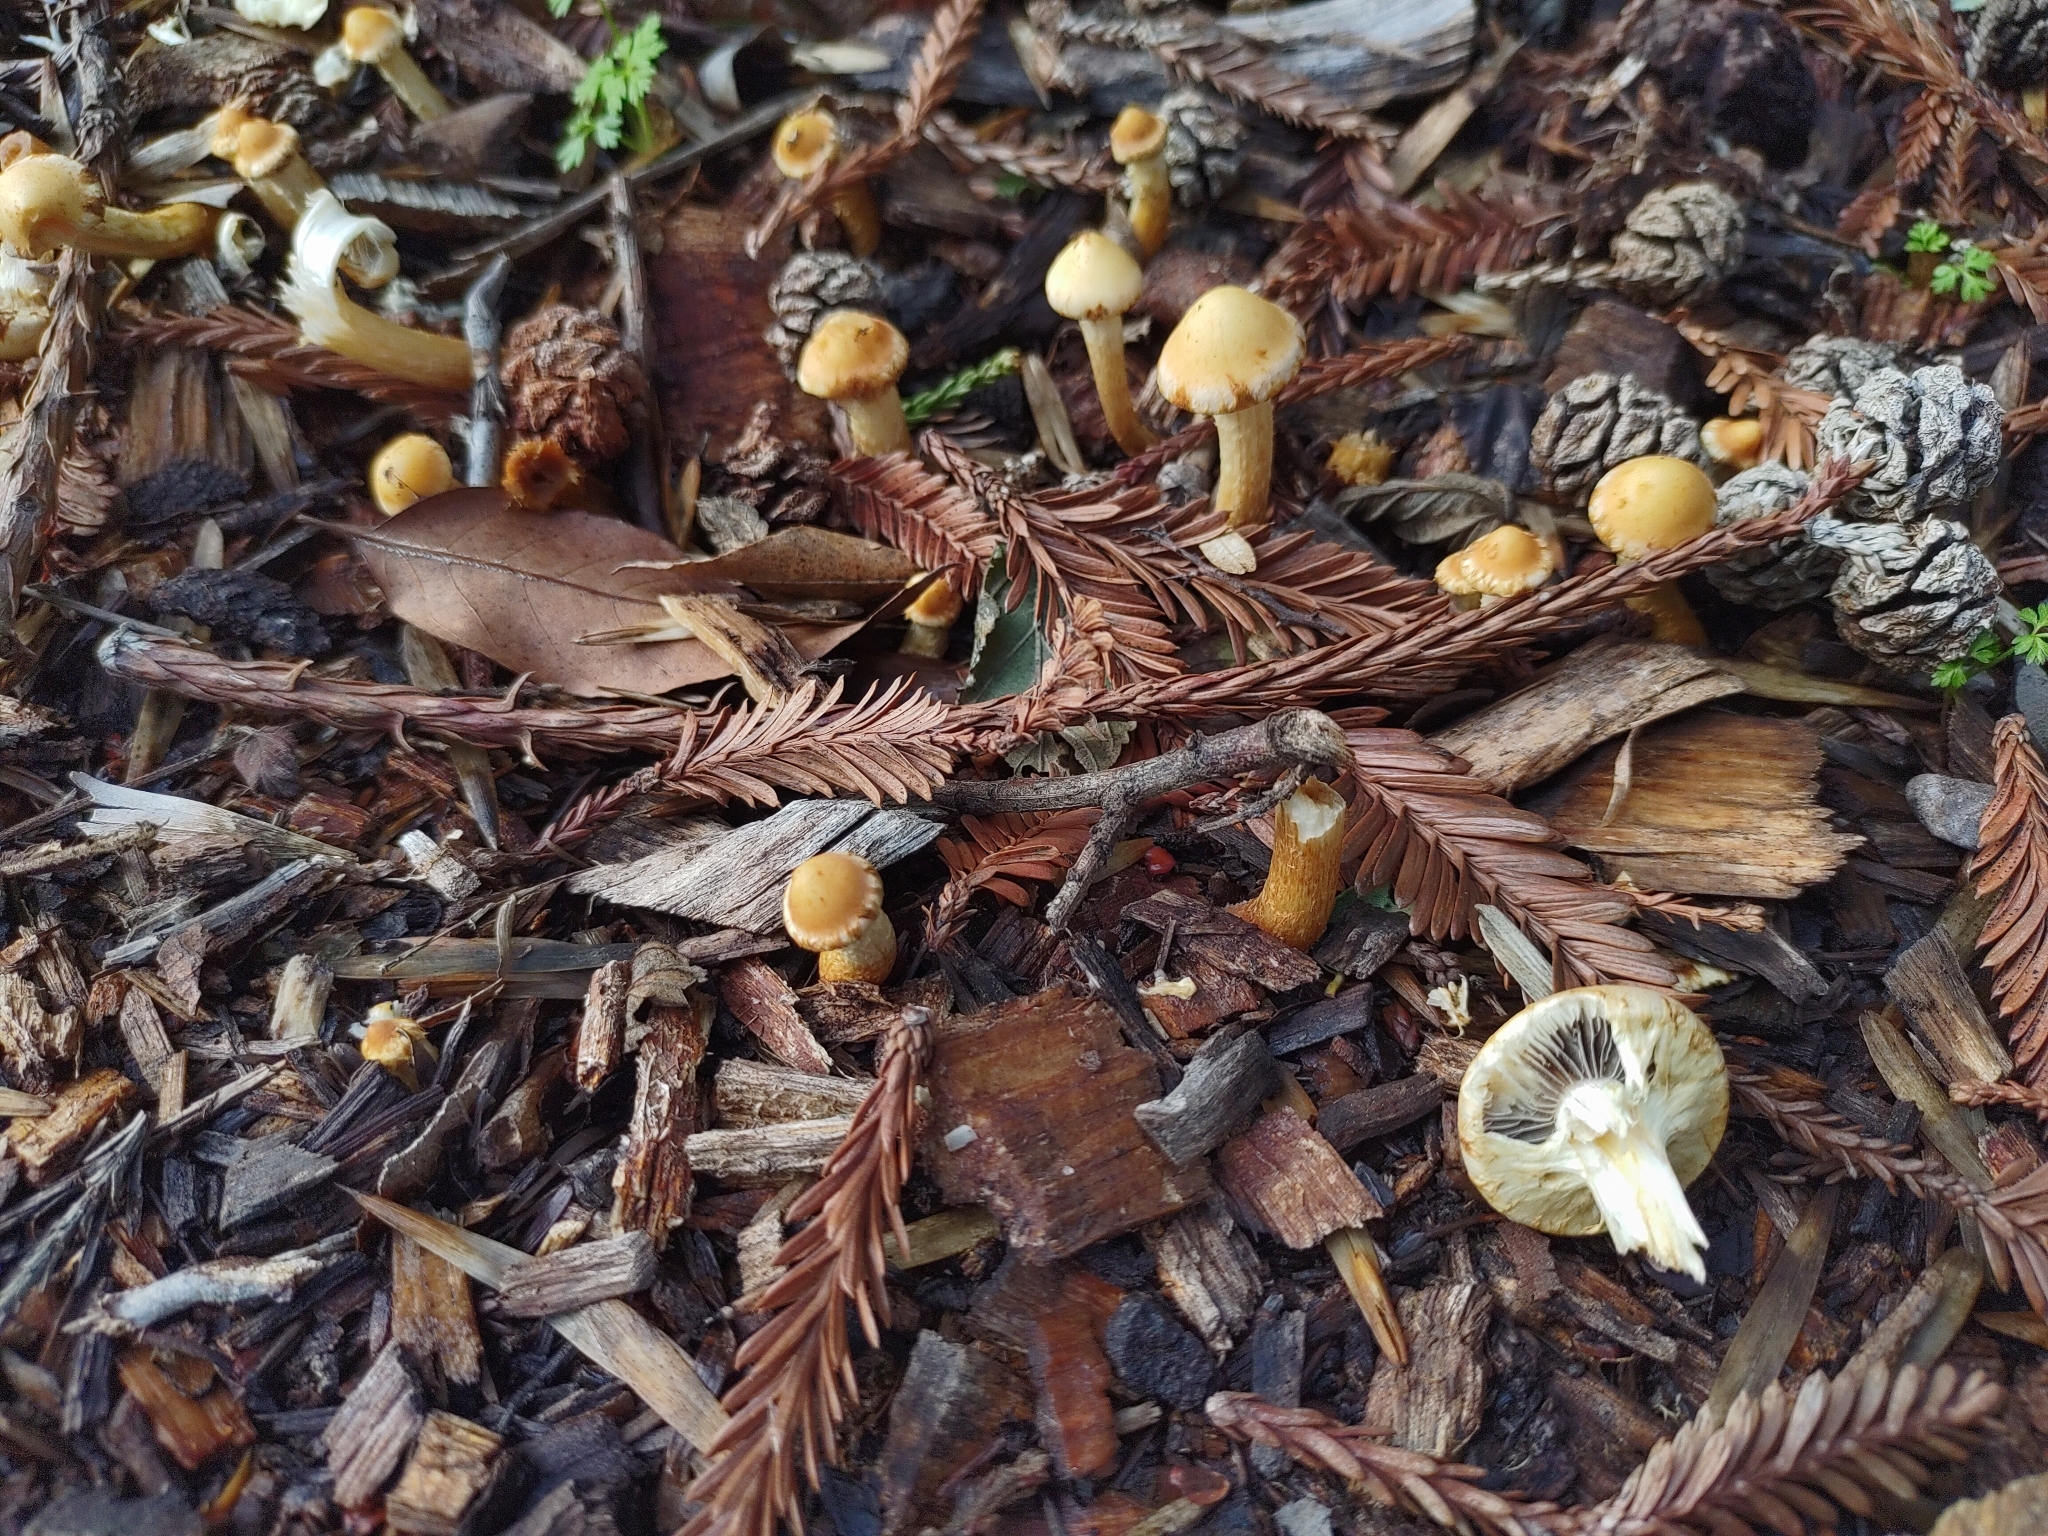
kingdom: Fungi
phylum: Basidiomycota
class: Agaricomycetes
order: Agaricales
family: Strophariaceae
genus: Leratiomyces
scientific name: Leratiomyces percevalii
